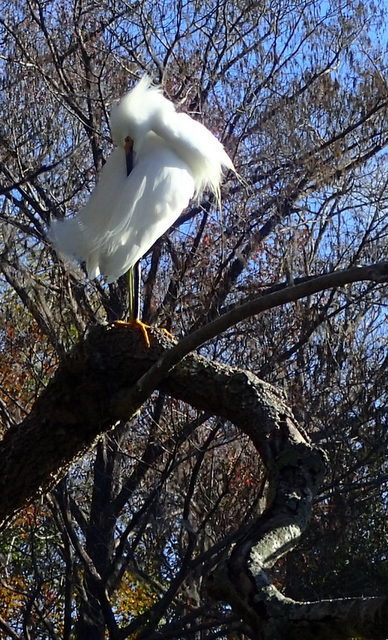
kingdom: Animalia
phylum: Chordata
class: Aves
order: Pelecaniformes
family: Ardeidae
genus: Egretta
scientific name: Egretta thula
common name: Snowy egret
